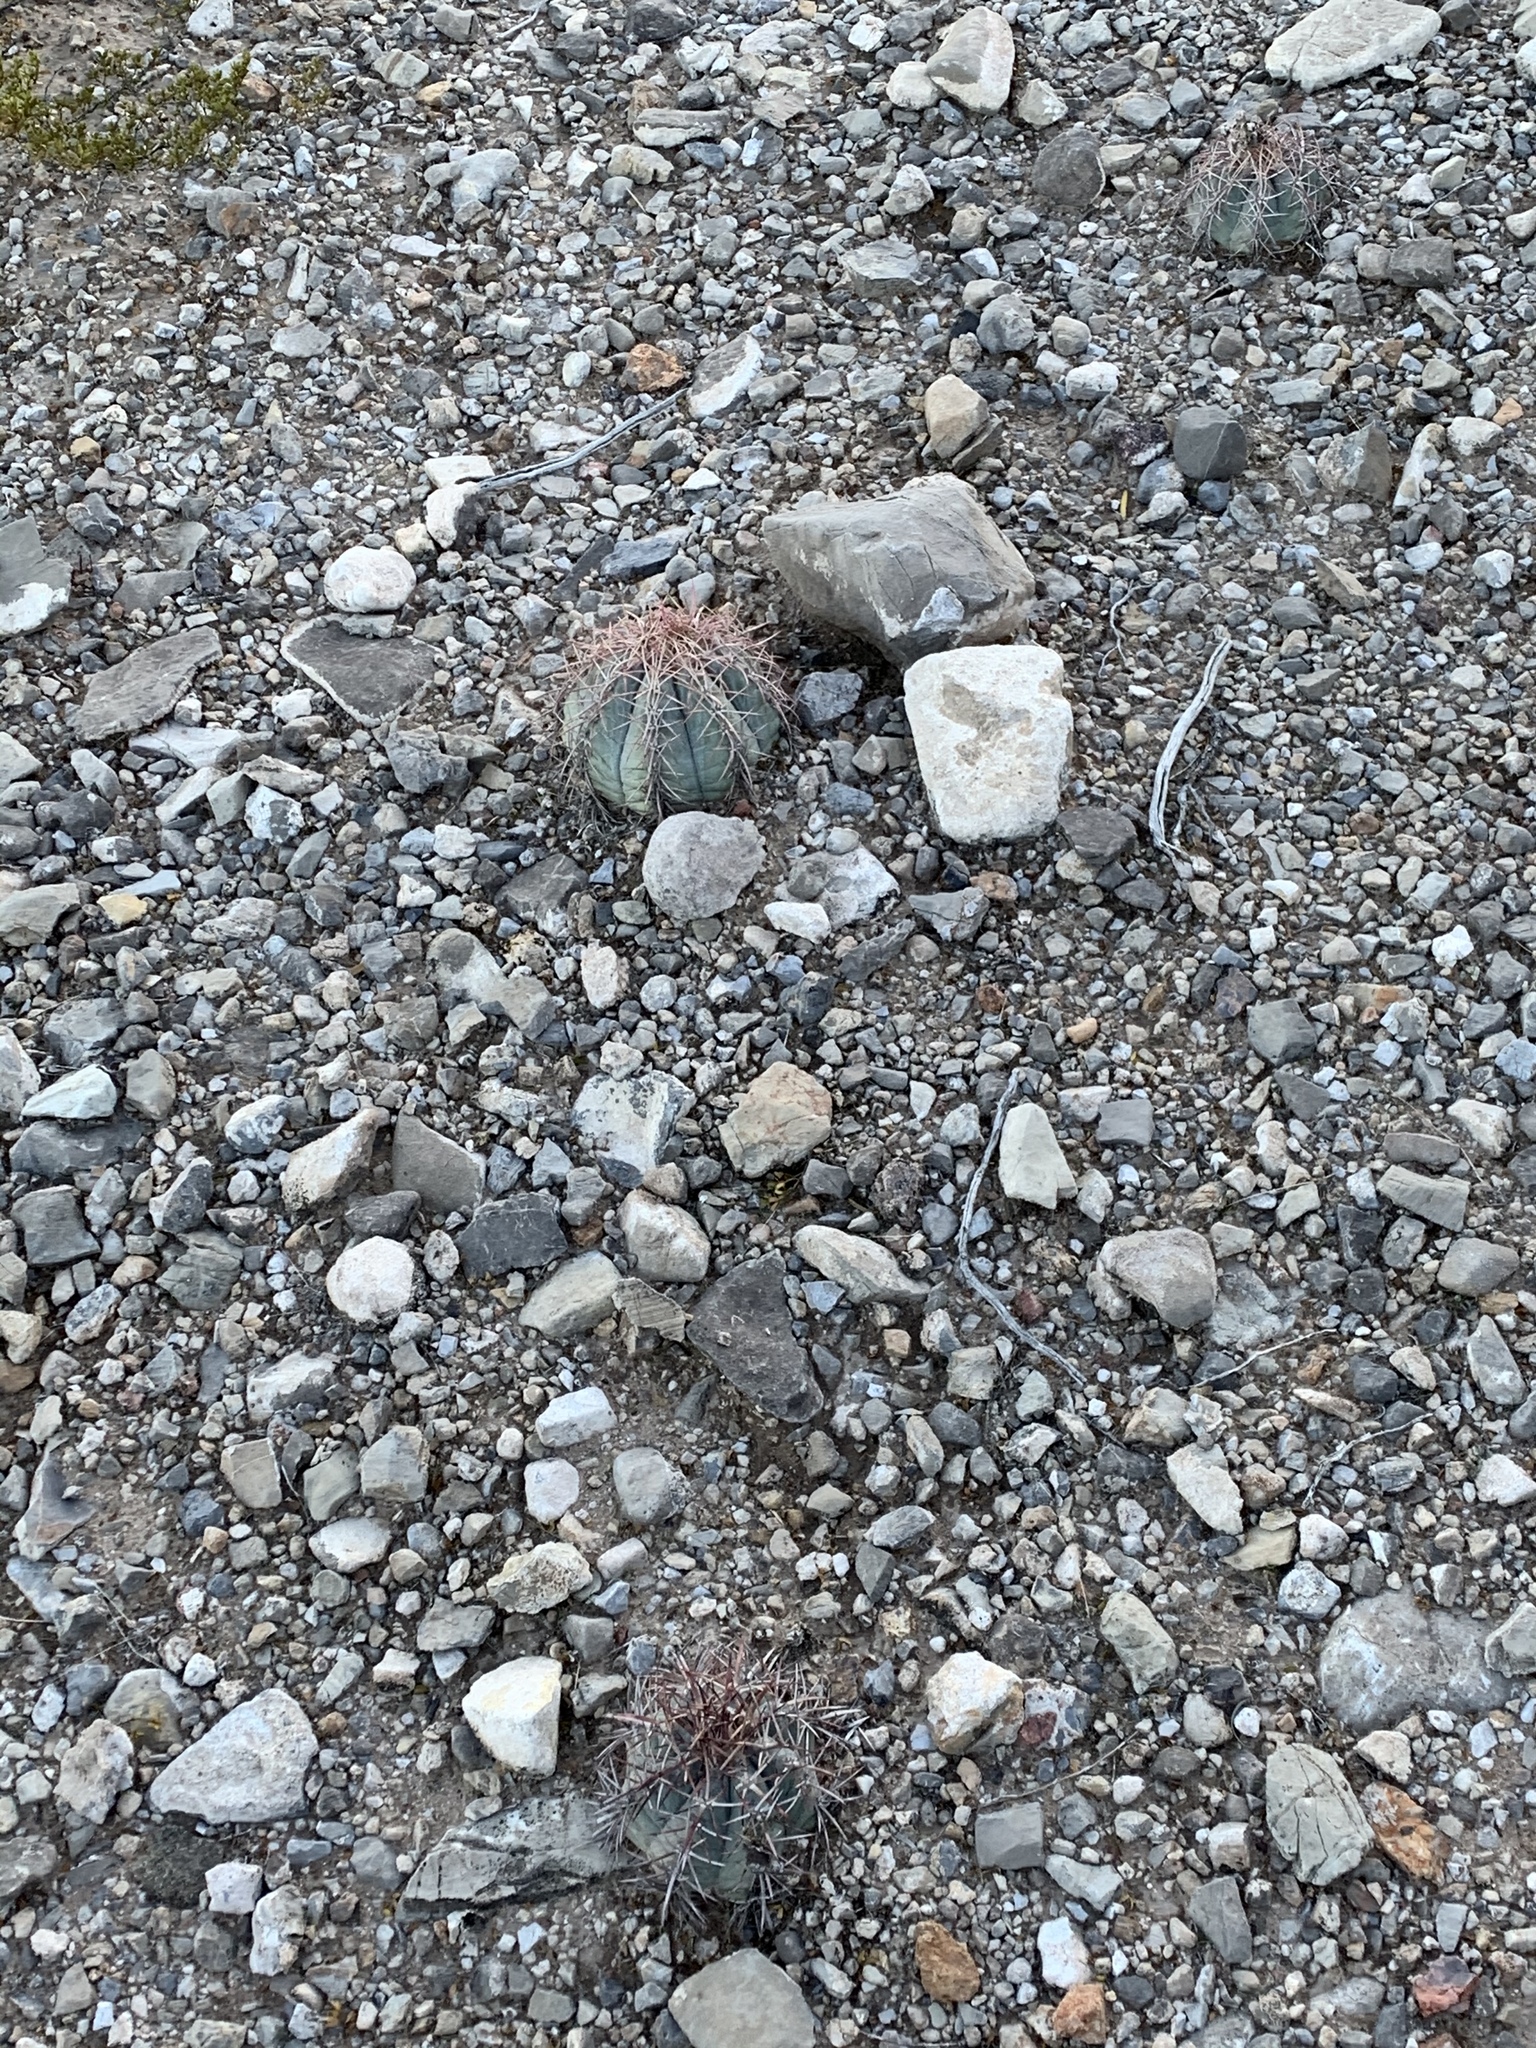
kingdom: Plantae
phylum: Tracheophyta
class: Magnoliopsida
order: Caryophyllales
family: Cactaceae
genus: Echinocactus
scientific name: Echinocactus horizonthalonius
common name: Devilshead
